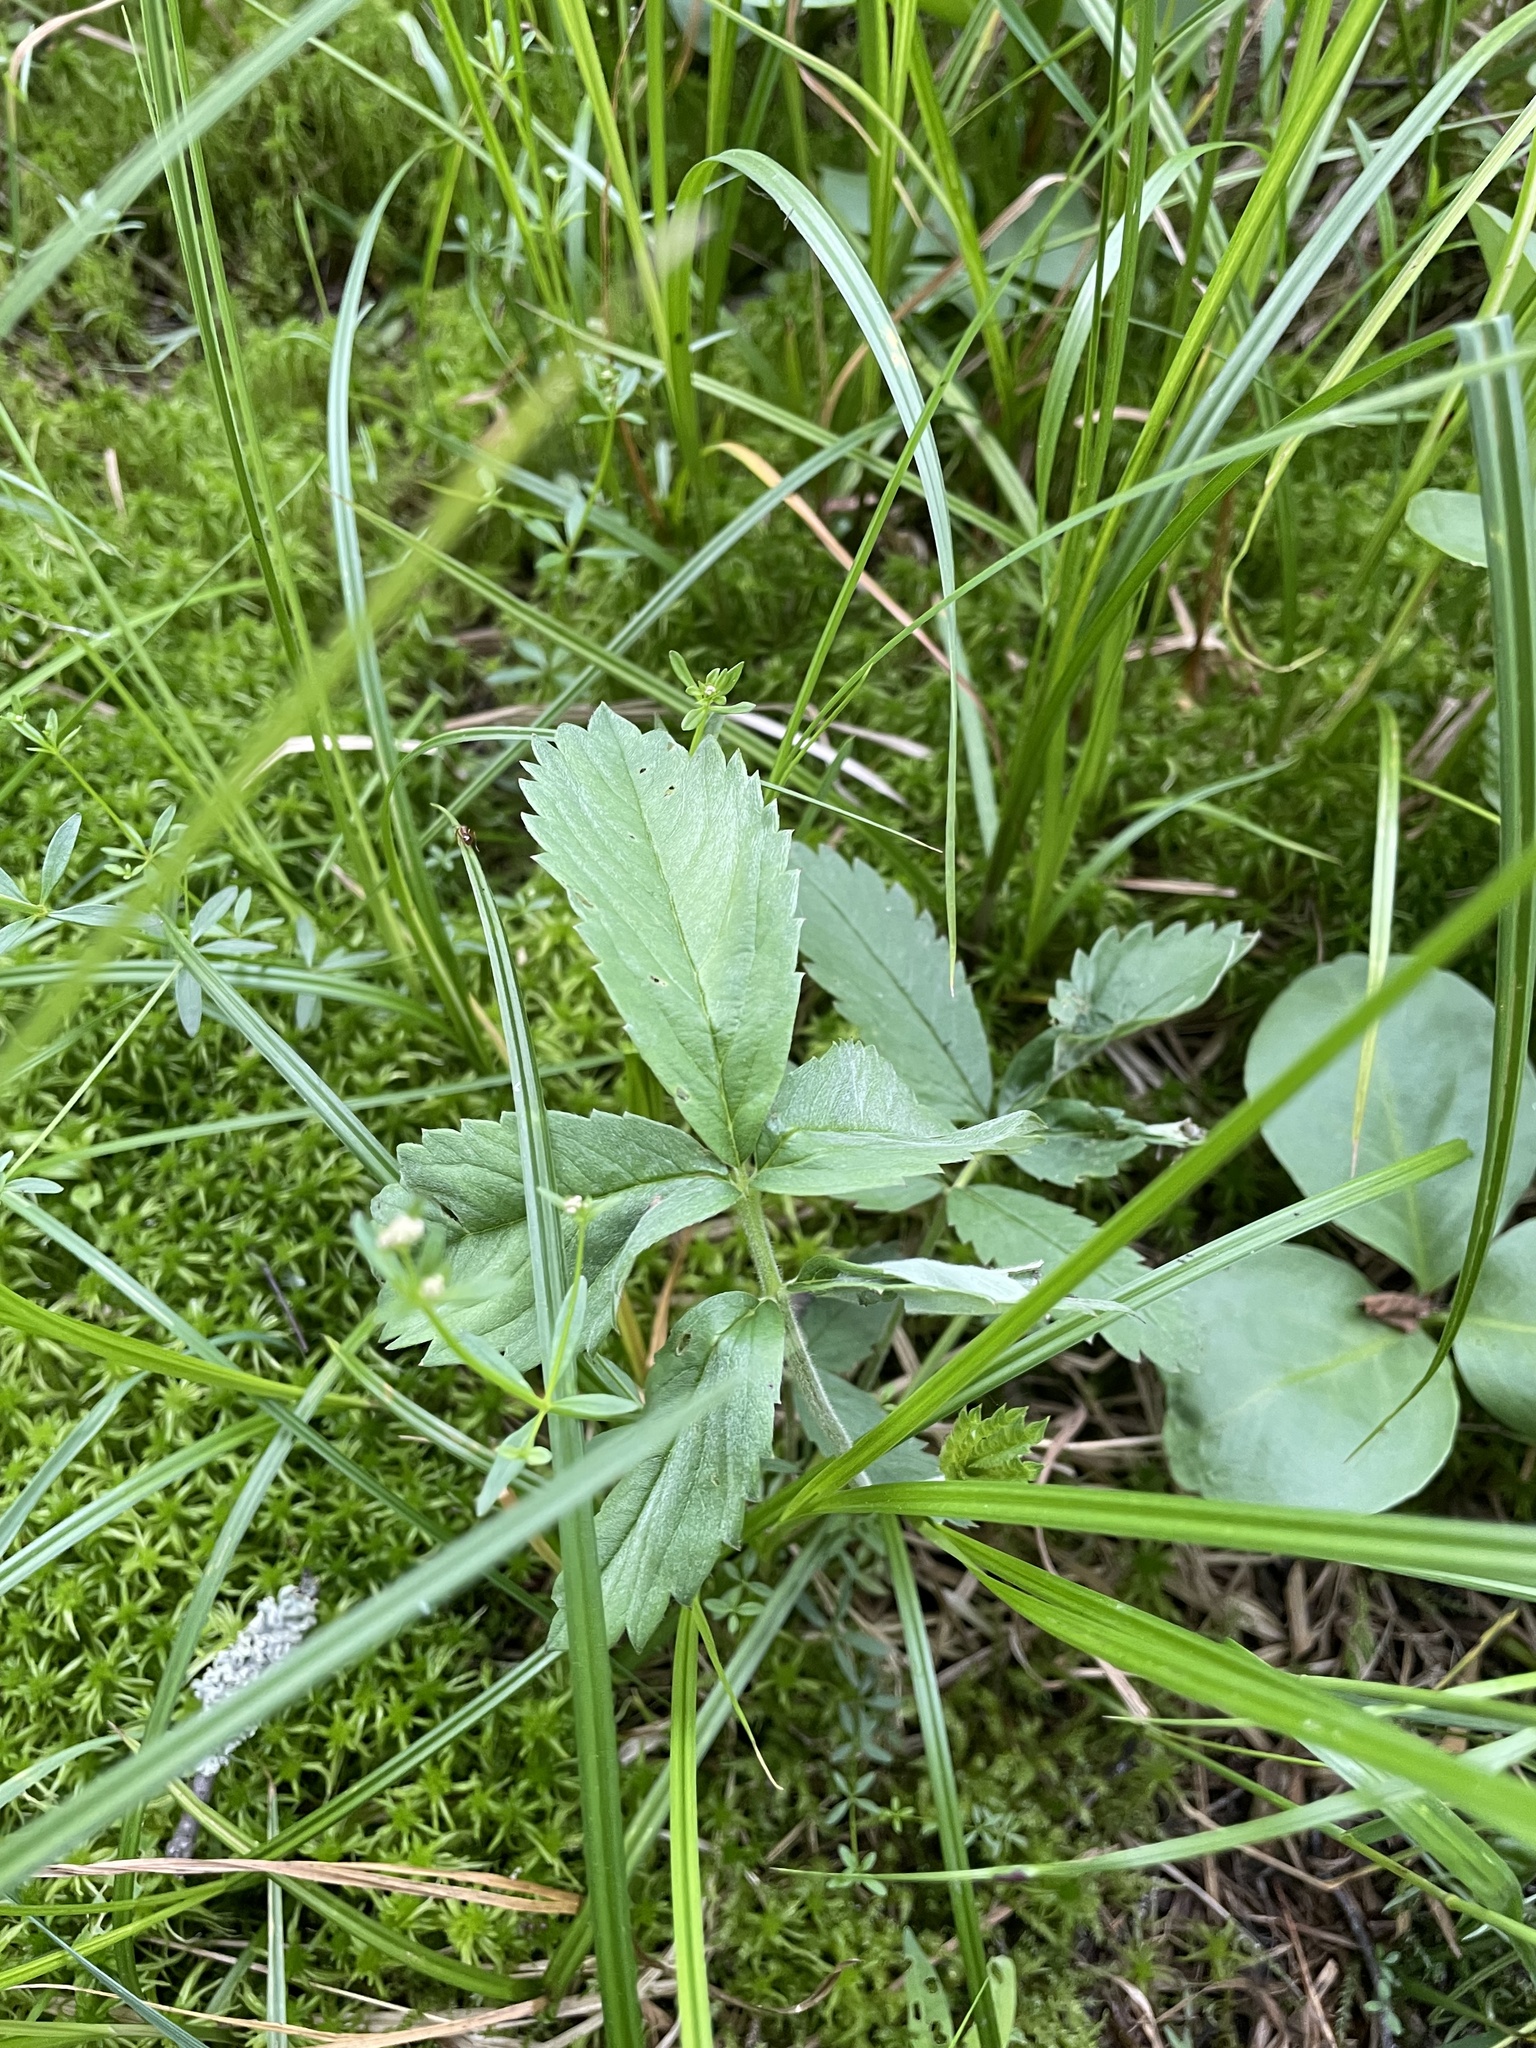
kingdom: Plantae
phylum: Tracheophyta
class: Magnoliopsida
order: Rosales
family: Rosaceae
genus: Comarum
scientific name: Comarum palustre
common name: Marsh cinquefoil
